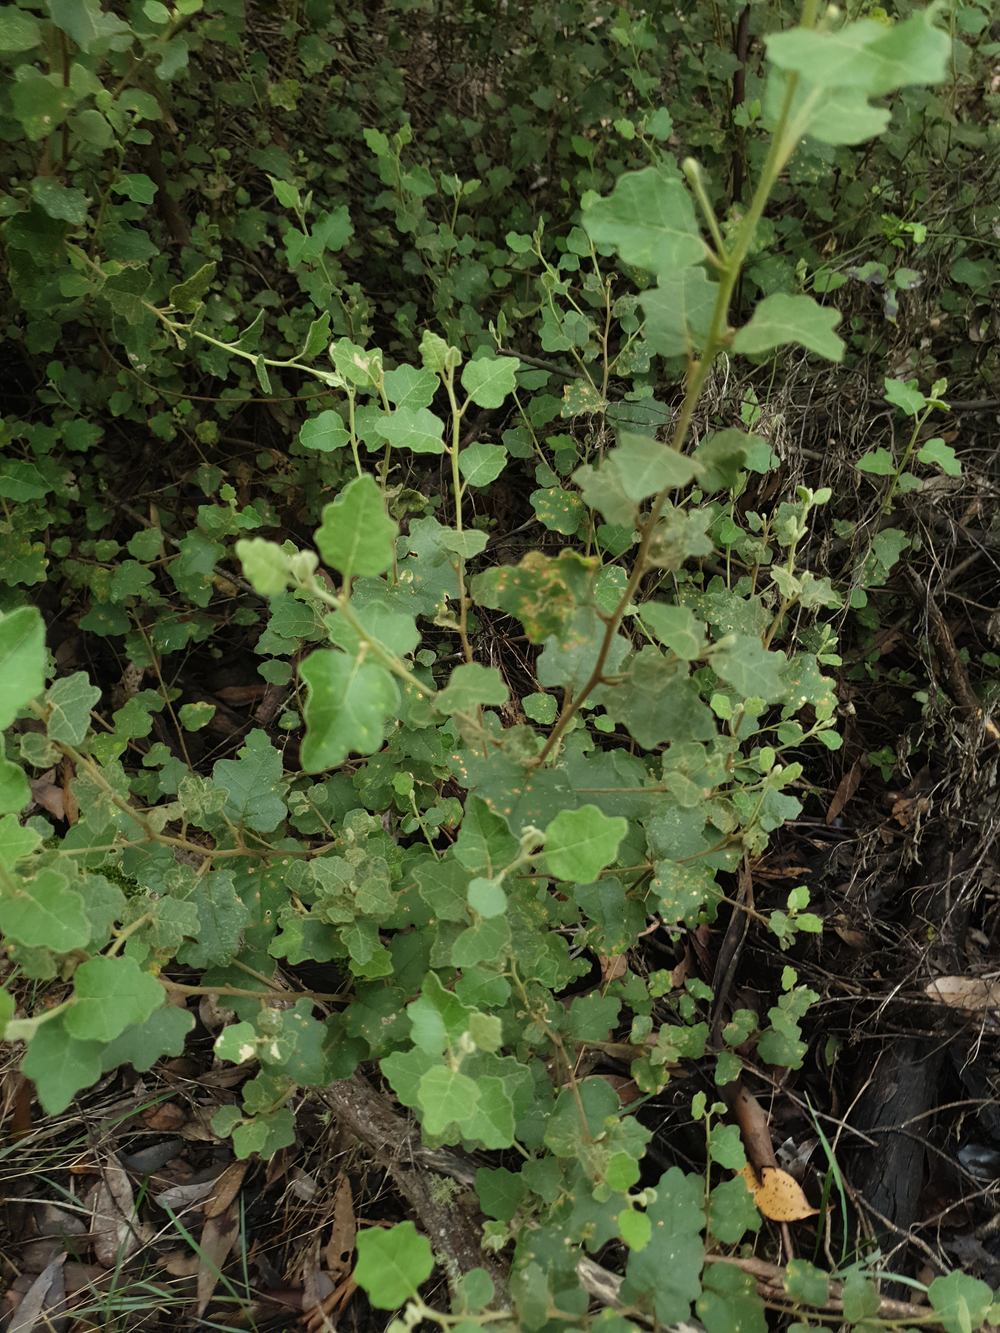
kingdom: Plantae
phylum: Tracheophyta
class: Magnoliopsida
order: Sapindales
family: Rutaceae
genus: Chorilaena
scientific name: Chorilaena quercifolia
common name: Wild hop
